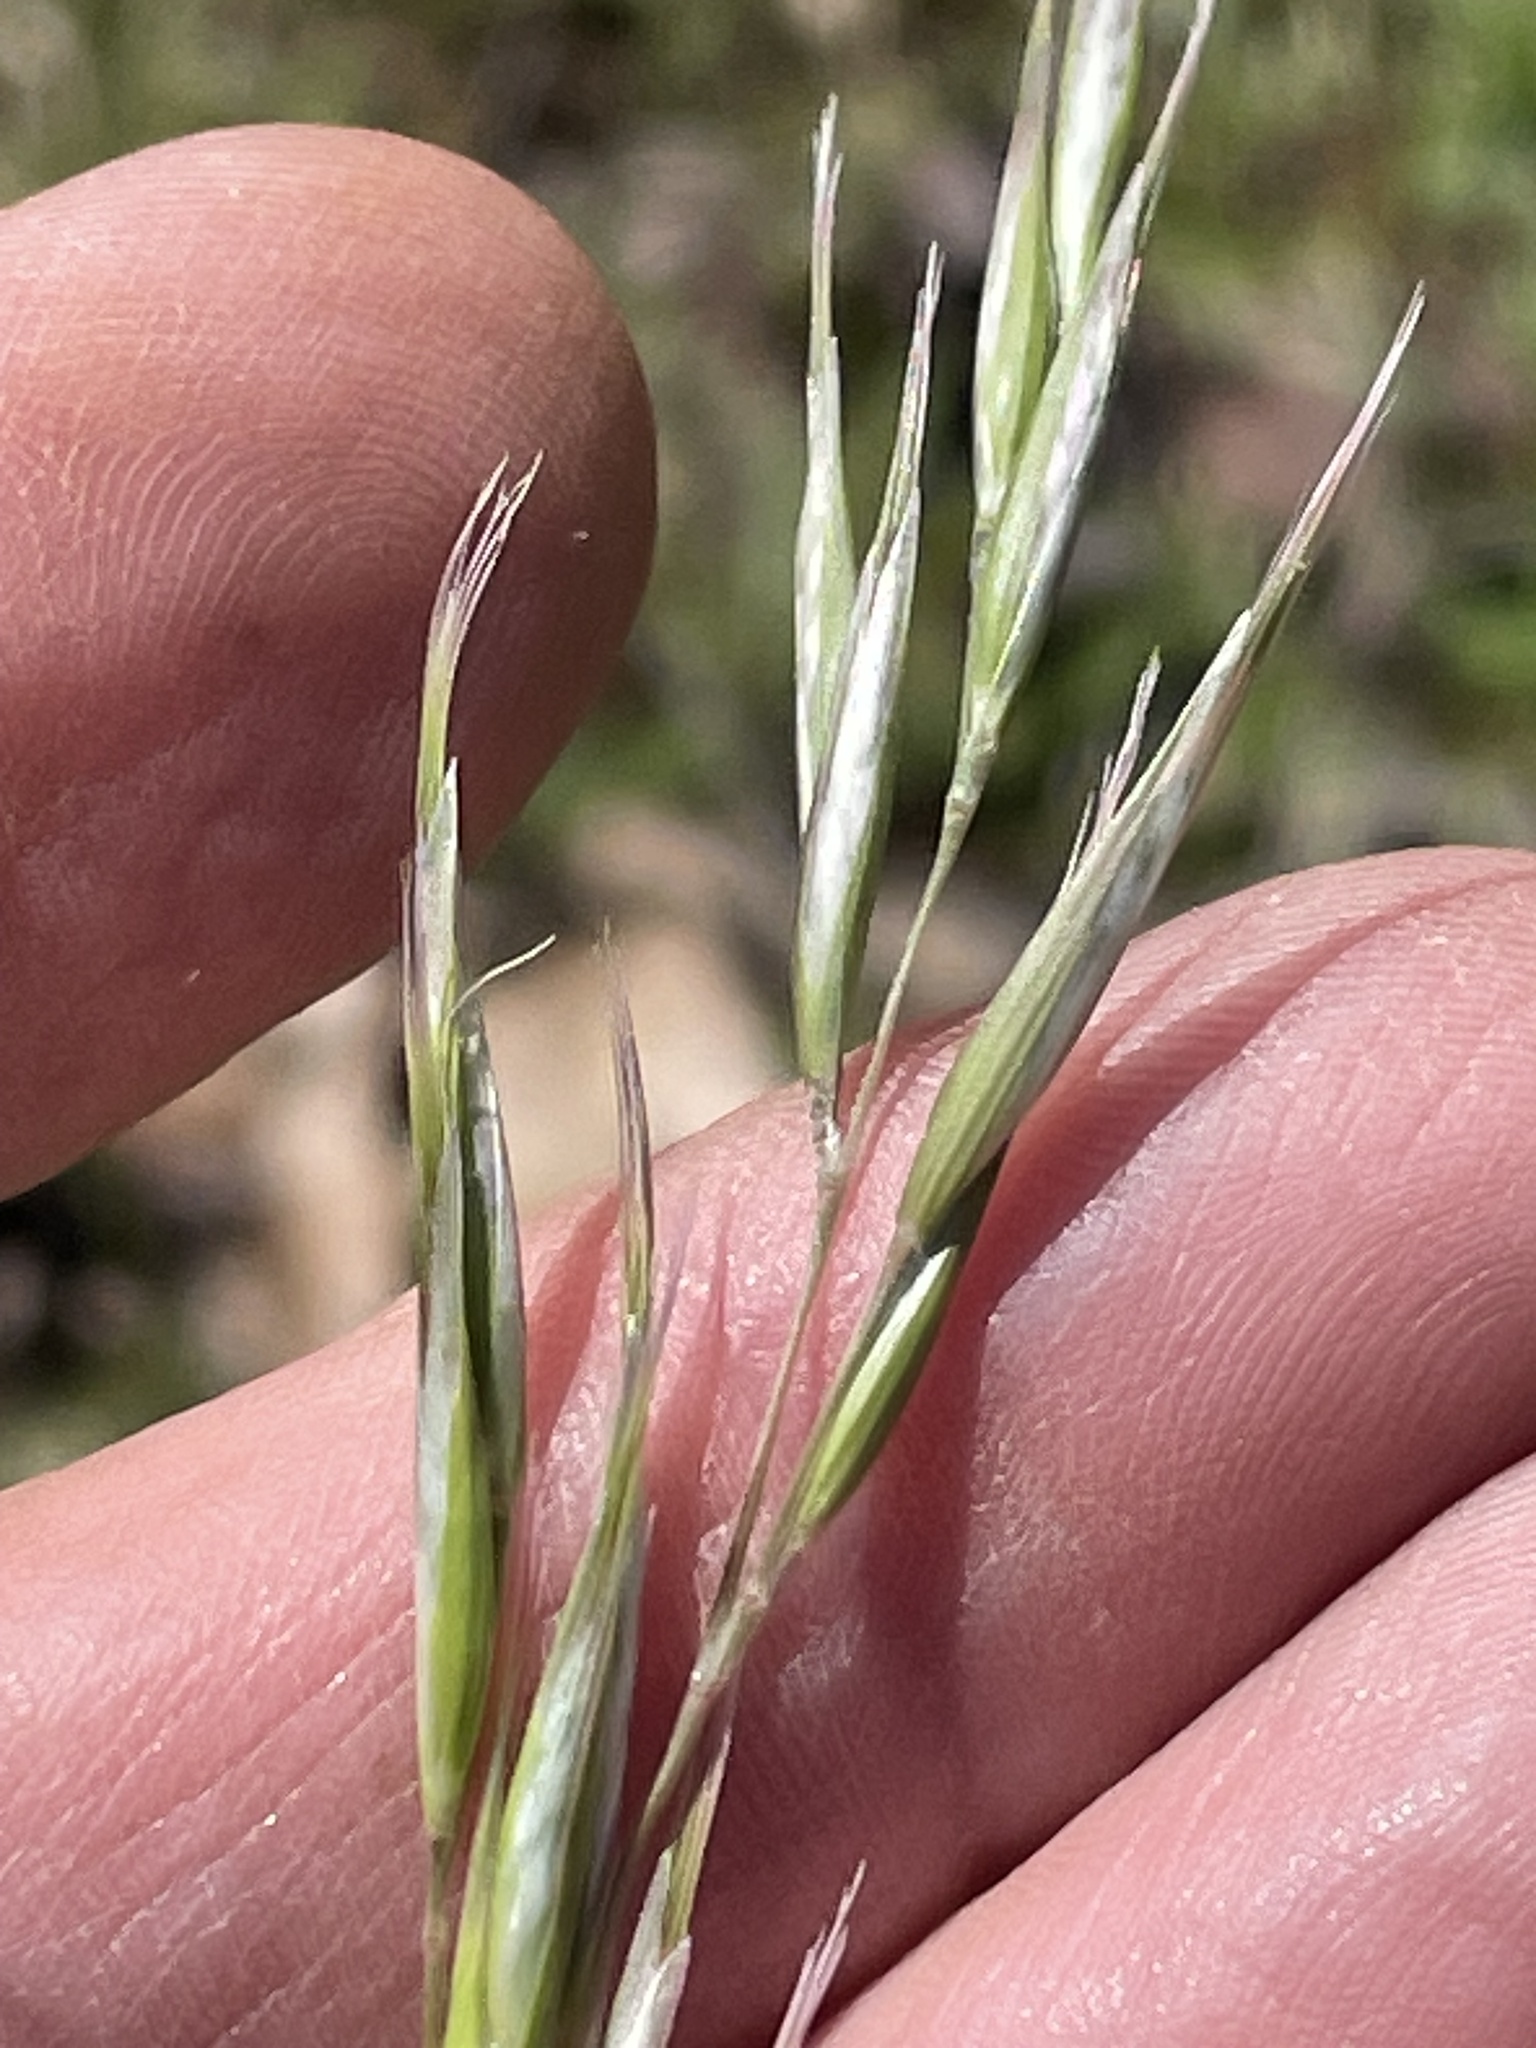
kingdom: Plantae
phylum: Tracheophyta
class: Liliopsida
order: Poales
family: Poaceae
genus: Danthonia
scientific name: Danthonia sericea
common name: Downy danthonia
